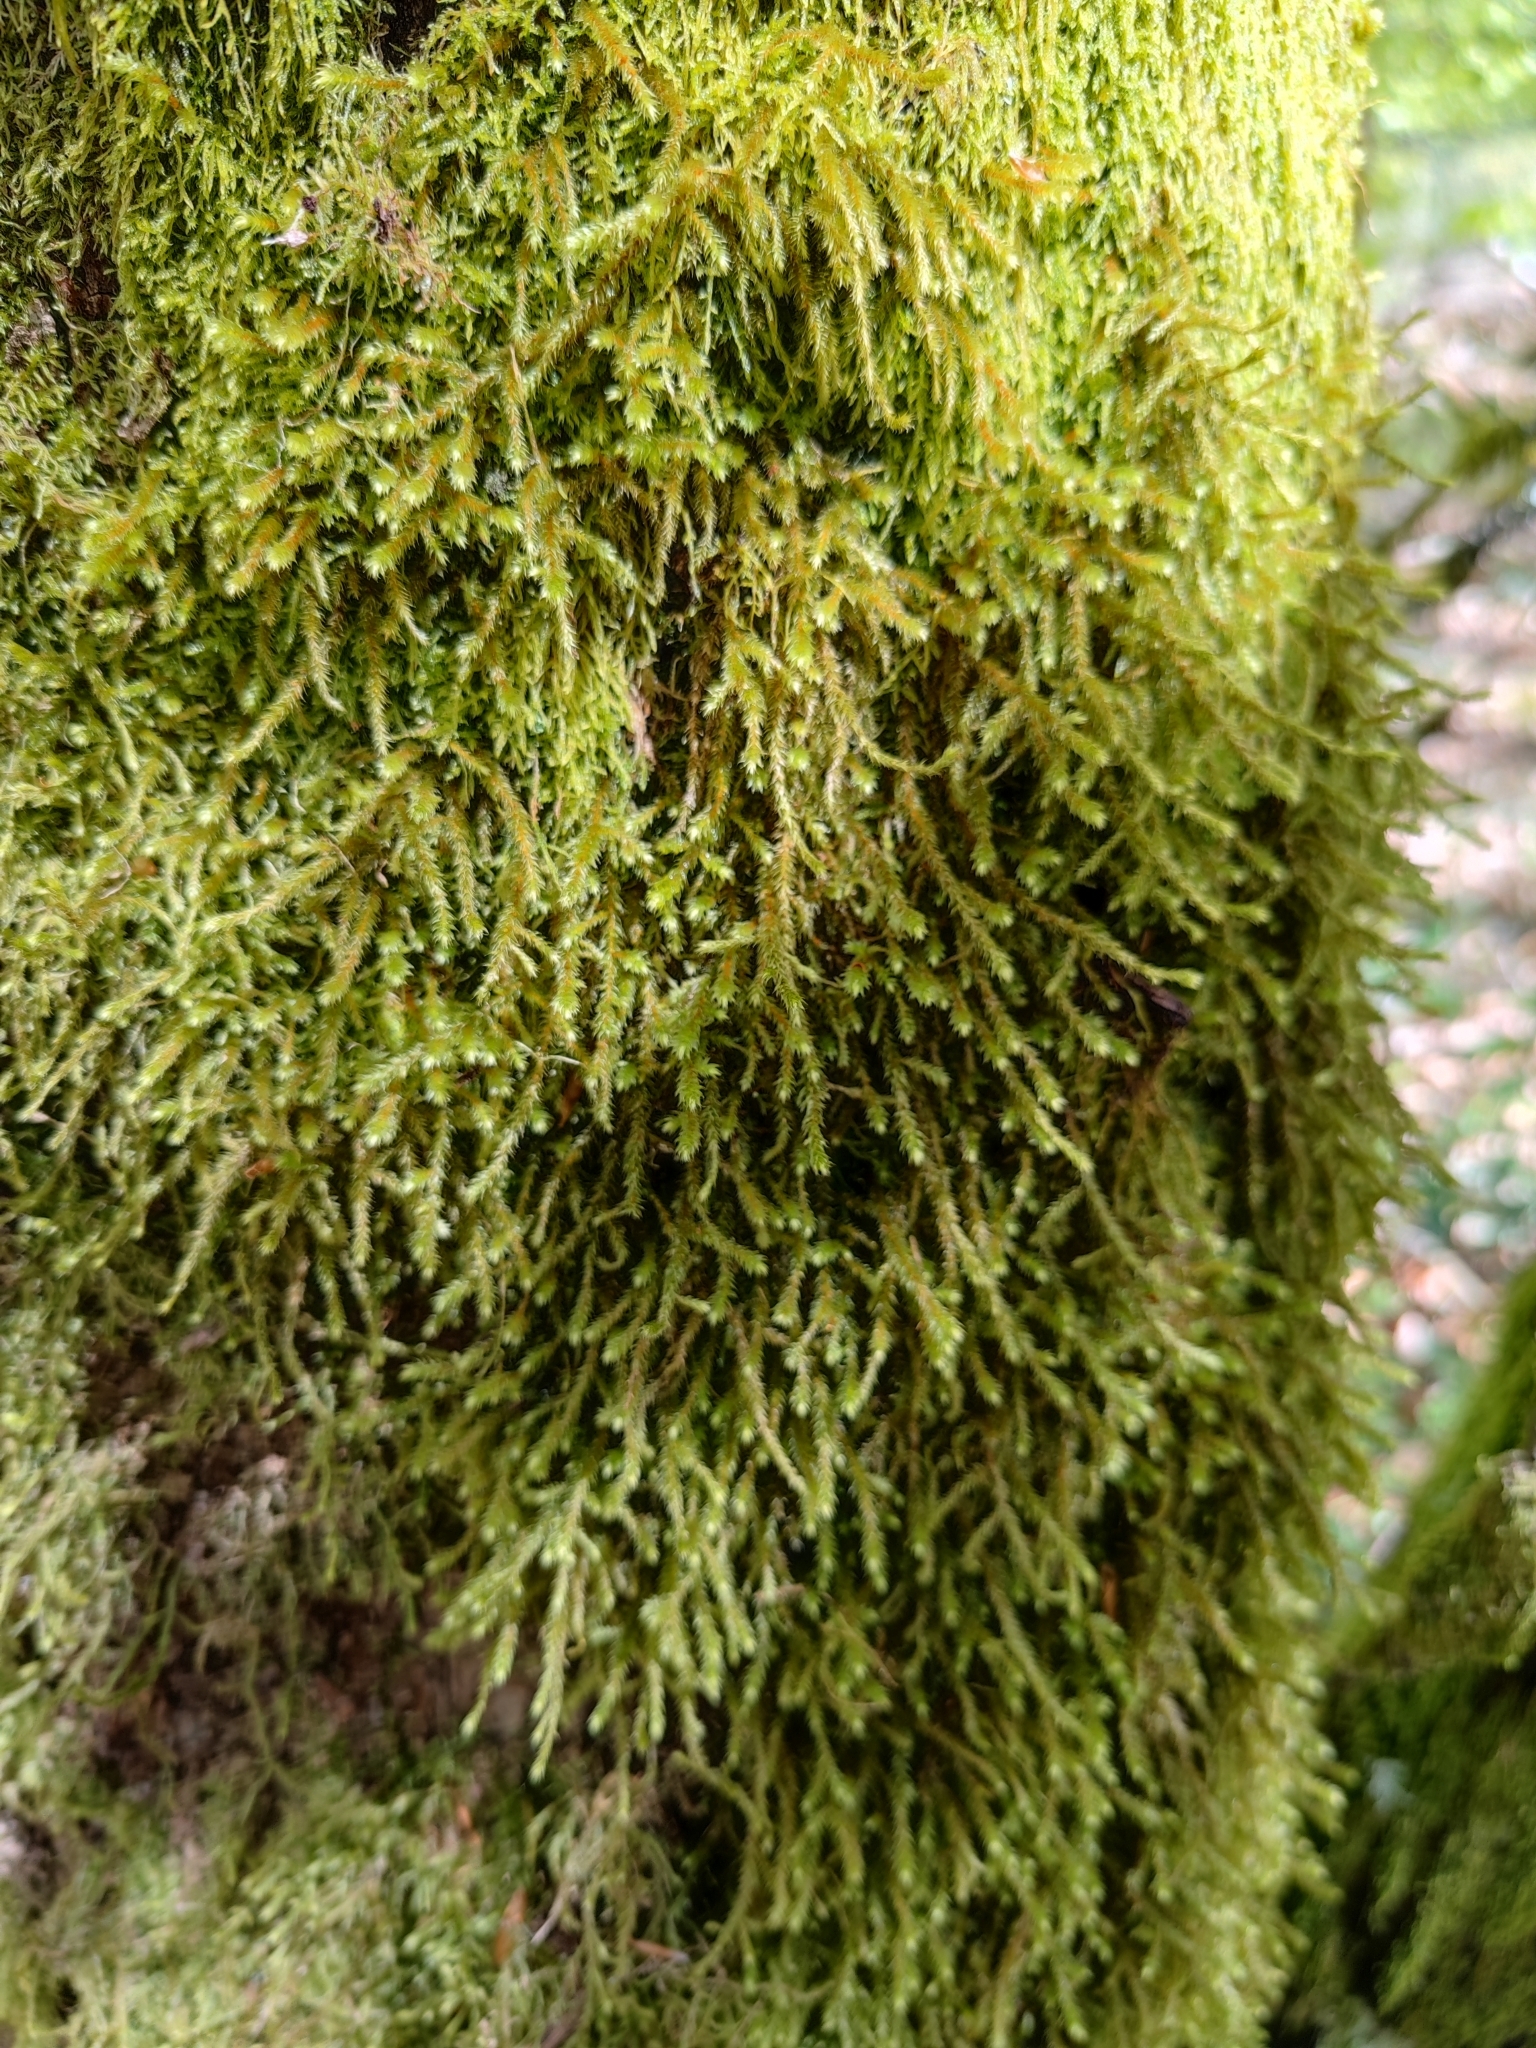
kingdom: Plantae
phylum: Bryophyta
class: Bryopsida
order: Hypnales
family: Antitrichiaceae
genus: Antitrichia
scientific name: Antitrichia curtipendula
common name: Pendulous wing-moss
